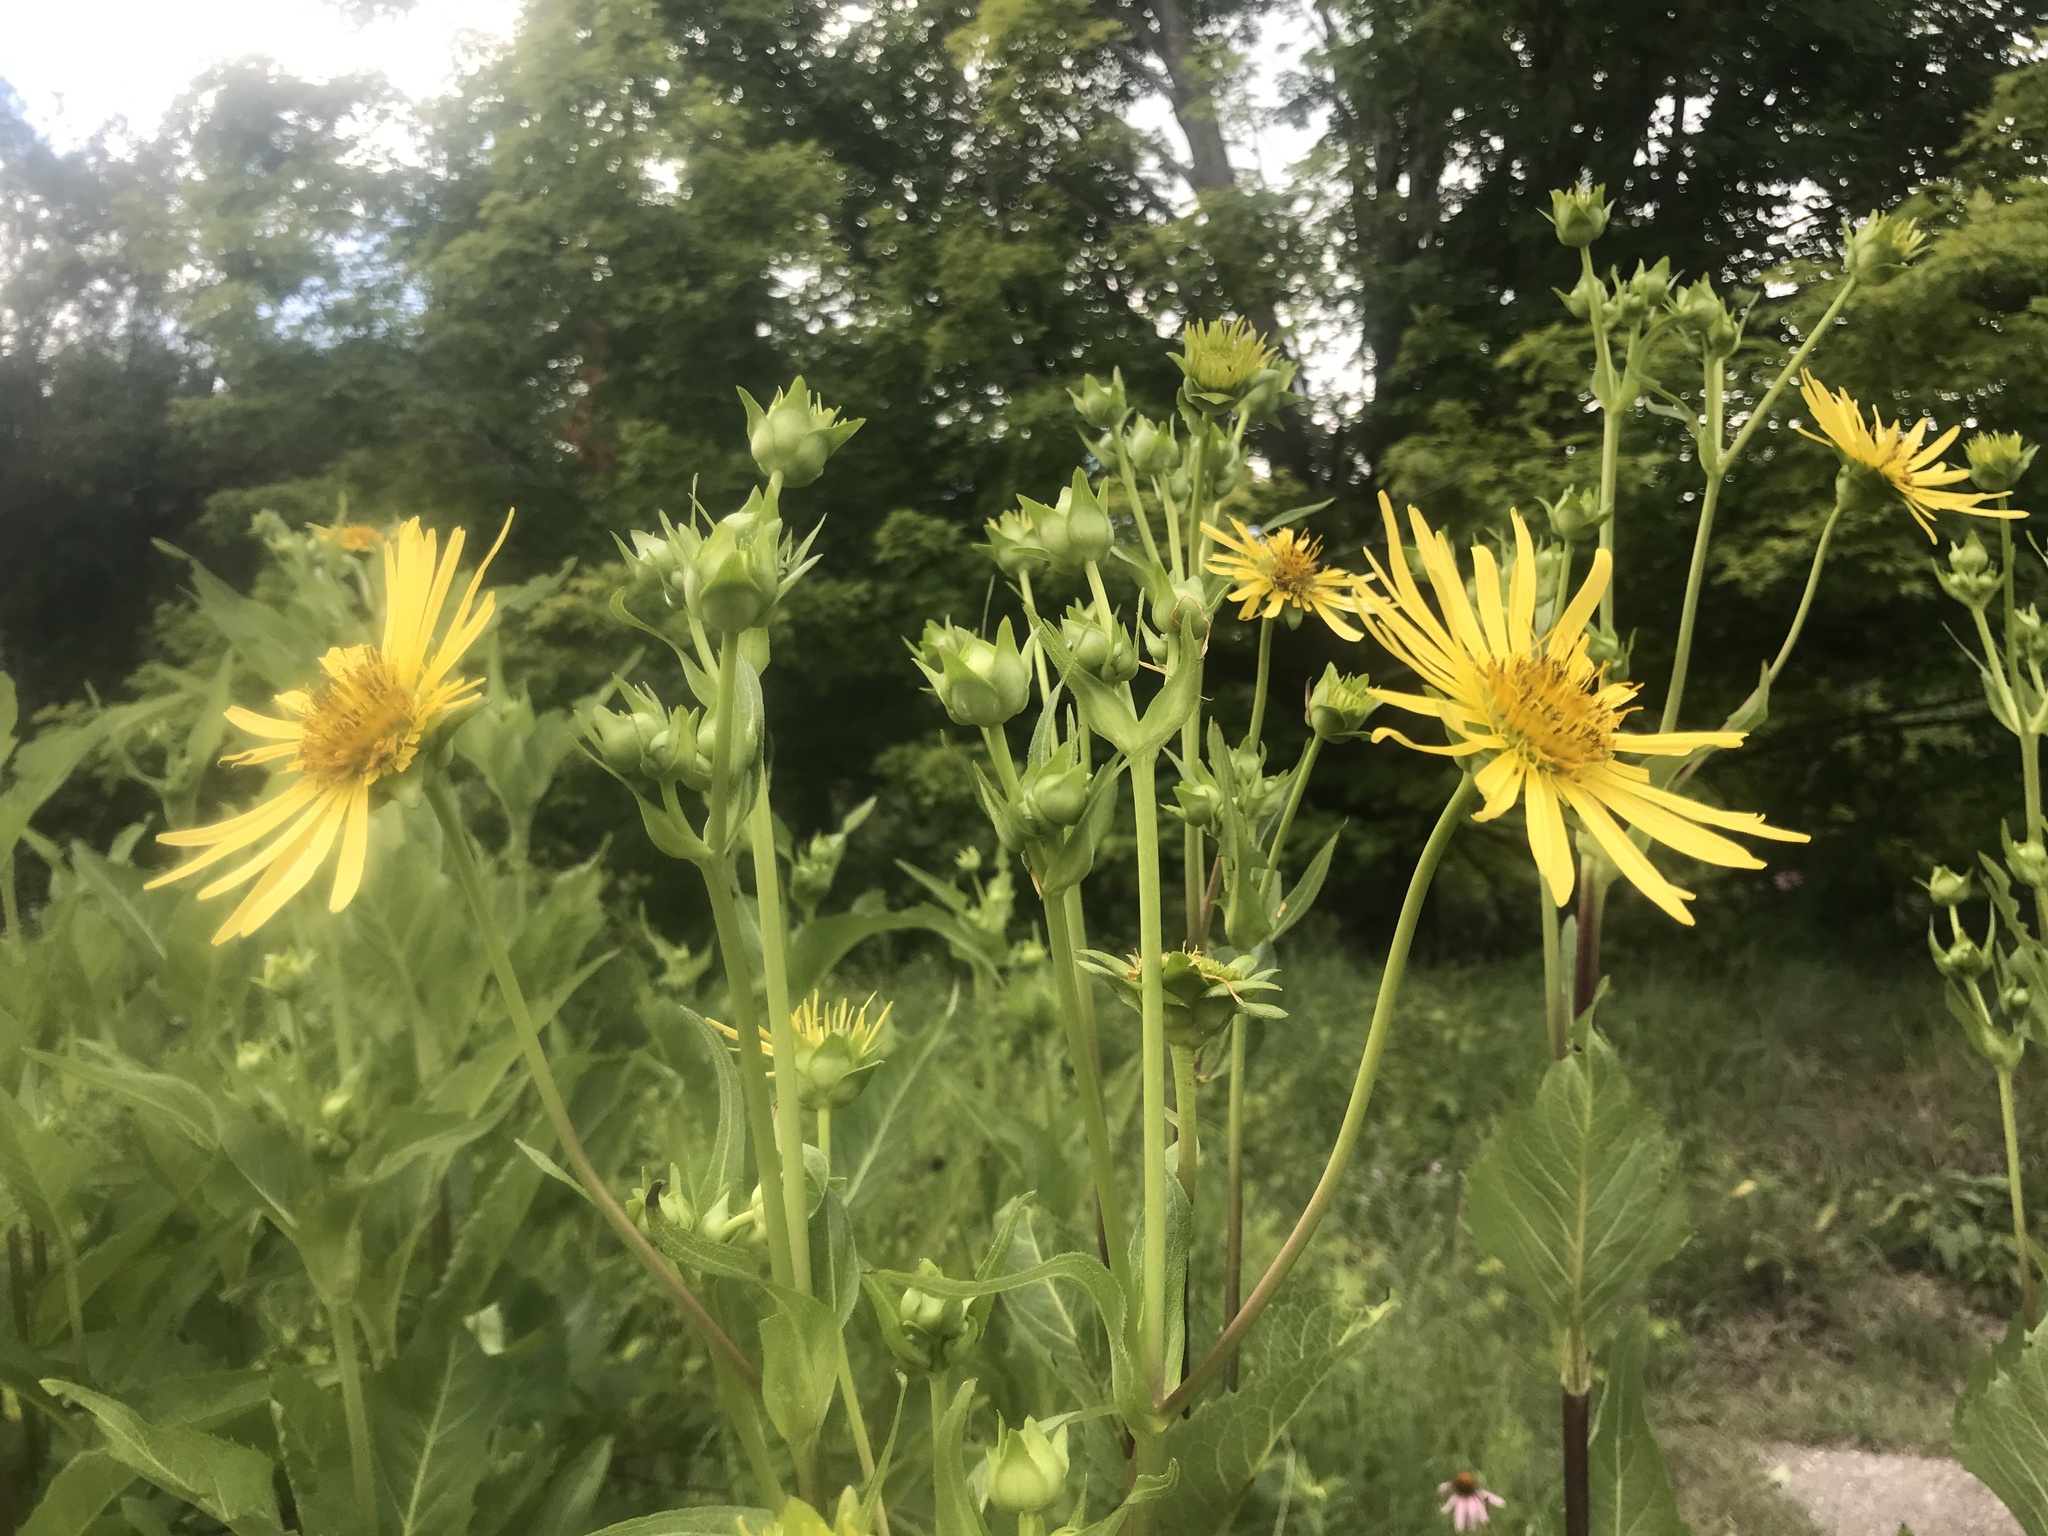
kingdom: Plantae
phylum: Tracheophyta
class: Magnoliopsida
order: Asterales
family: Asteraceae
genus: Silphium
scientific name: Silphium perfoliatum
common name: Cup-plant
